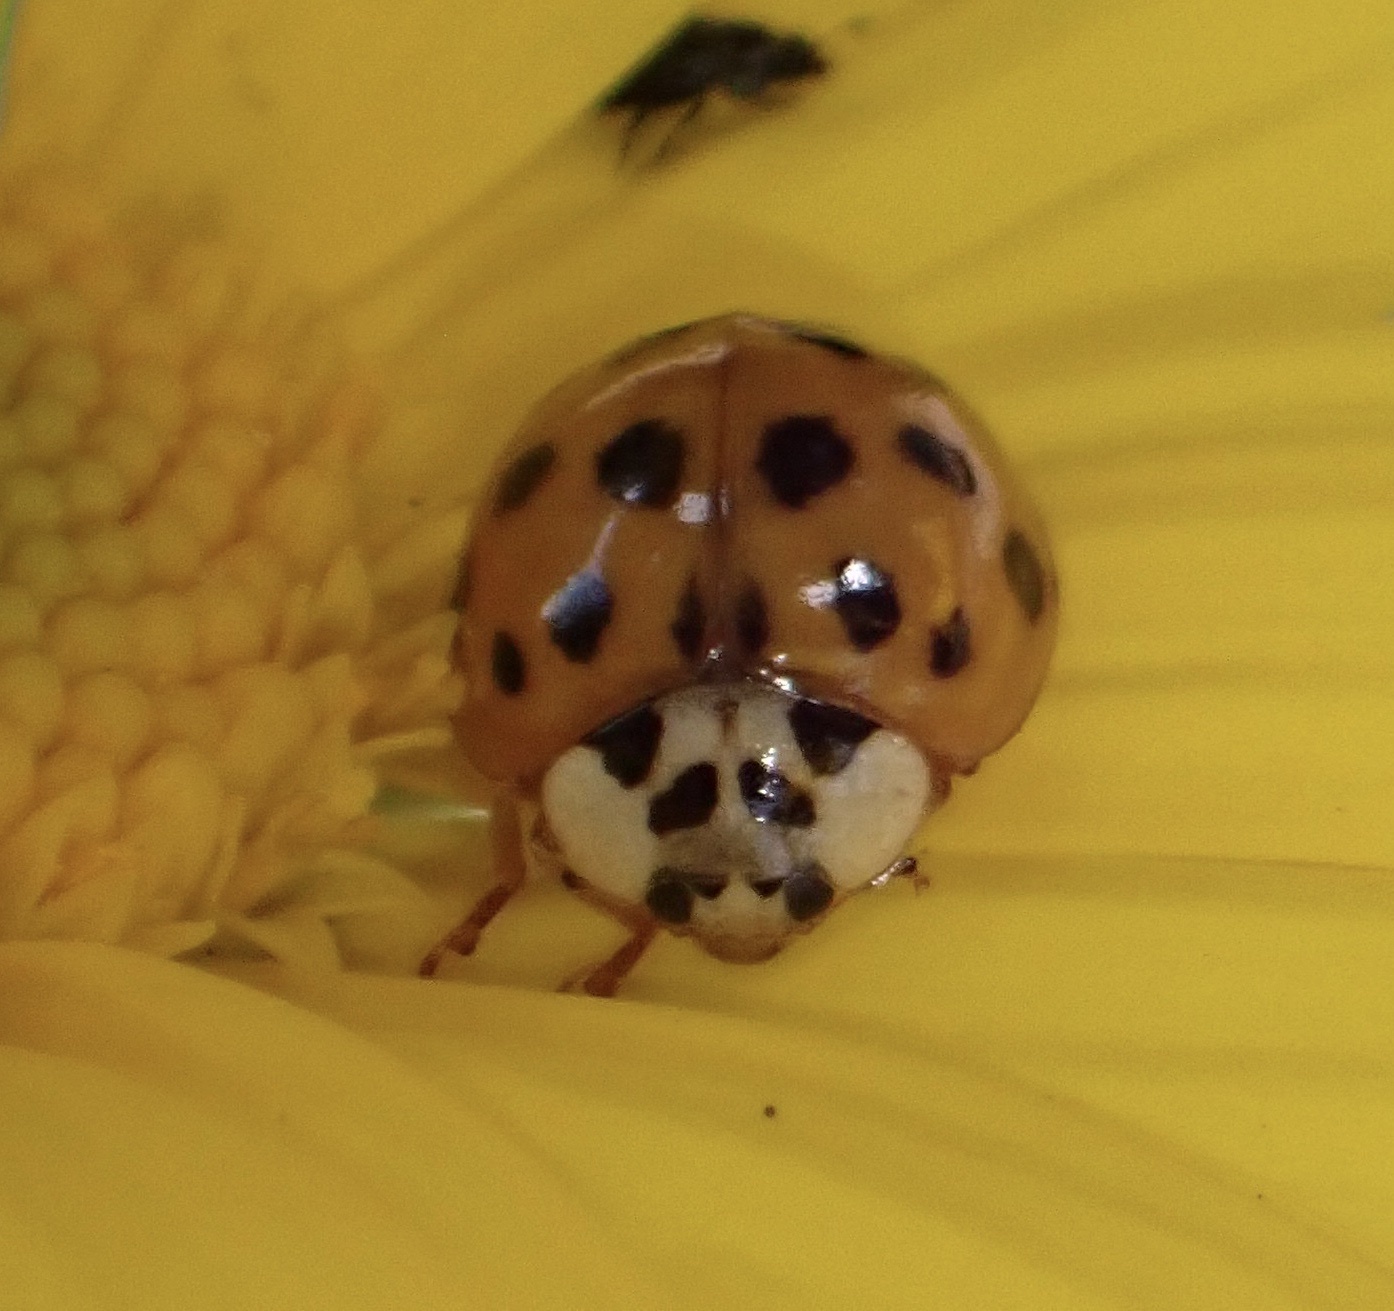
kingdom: Animalia
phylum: Arthropoda
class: Insecta
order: Coleoptera
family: Coccinellidae
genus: Harmonia
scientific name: Harmonia axyridis
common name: Harlequin ladybird
